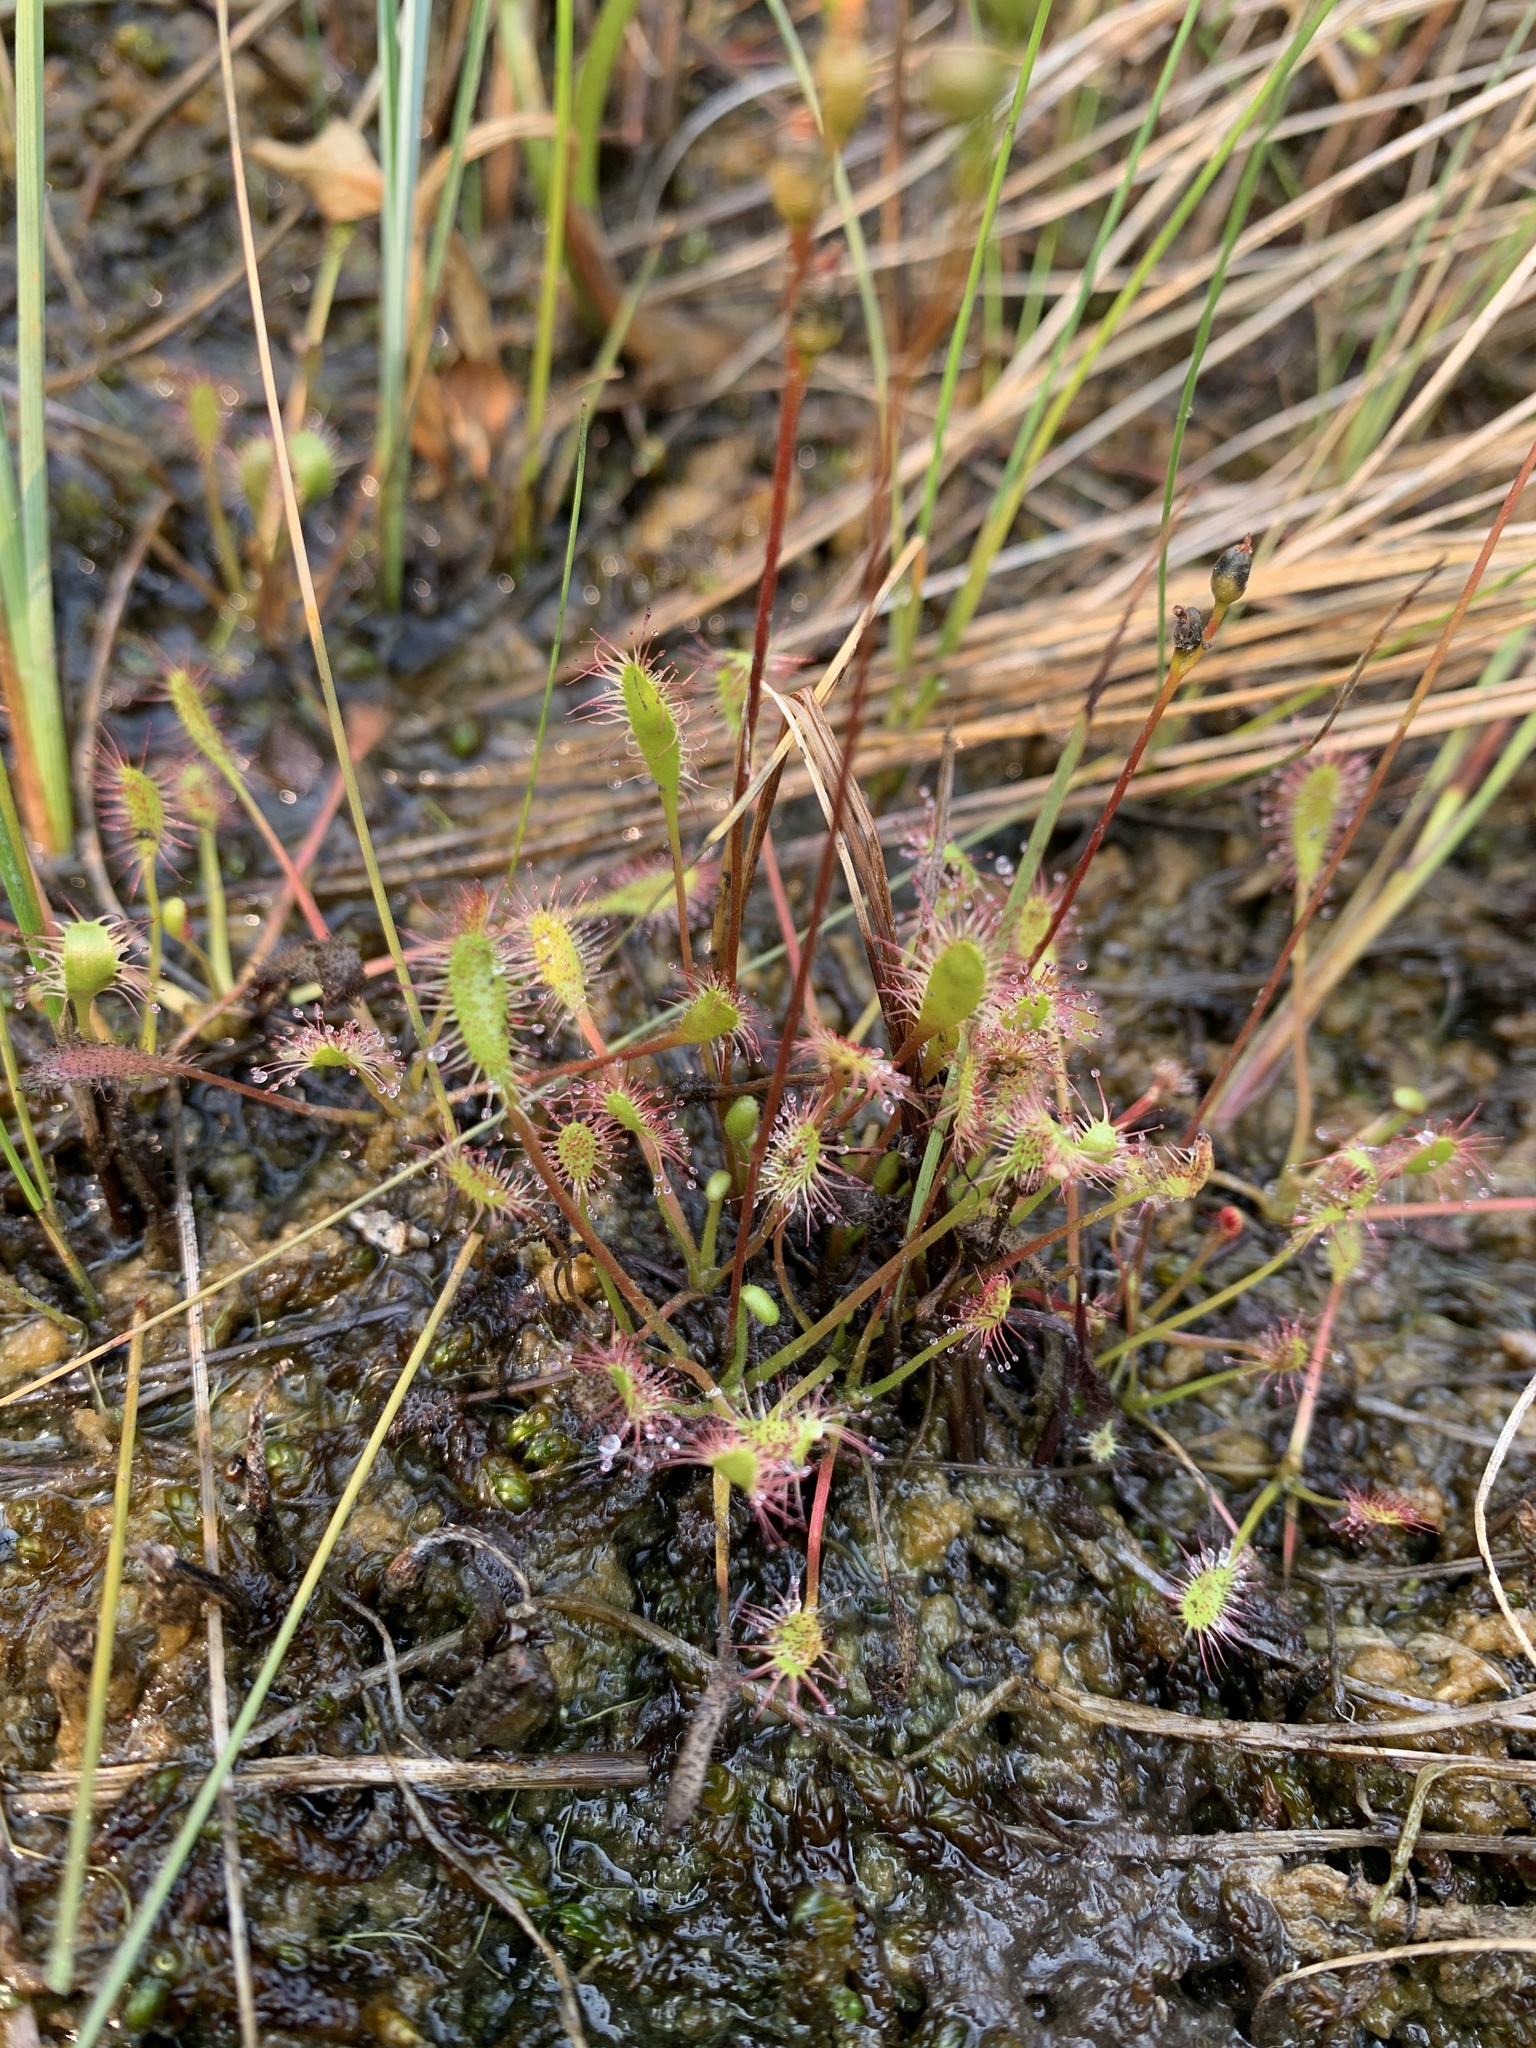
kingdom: Plantae
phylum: Tracheophyta
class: Magnoliopsida
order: Caryophyllales
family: Droseraceae
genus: Drosera
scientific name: Drosera anglica
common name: Great sundew
